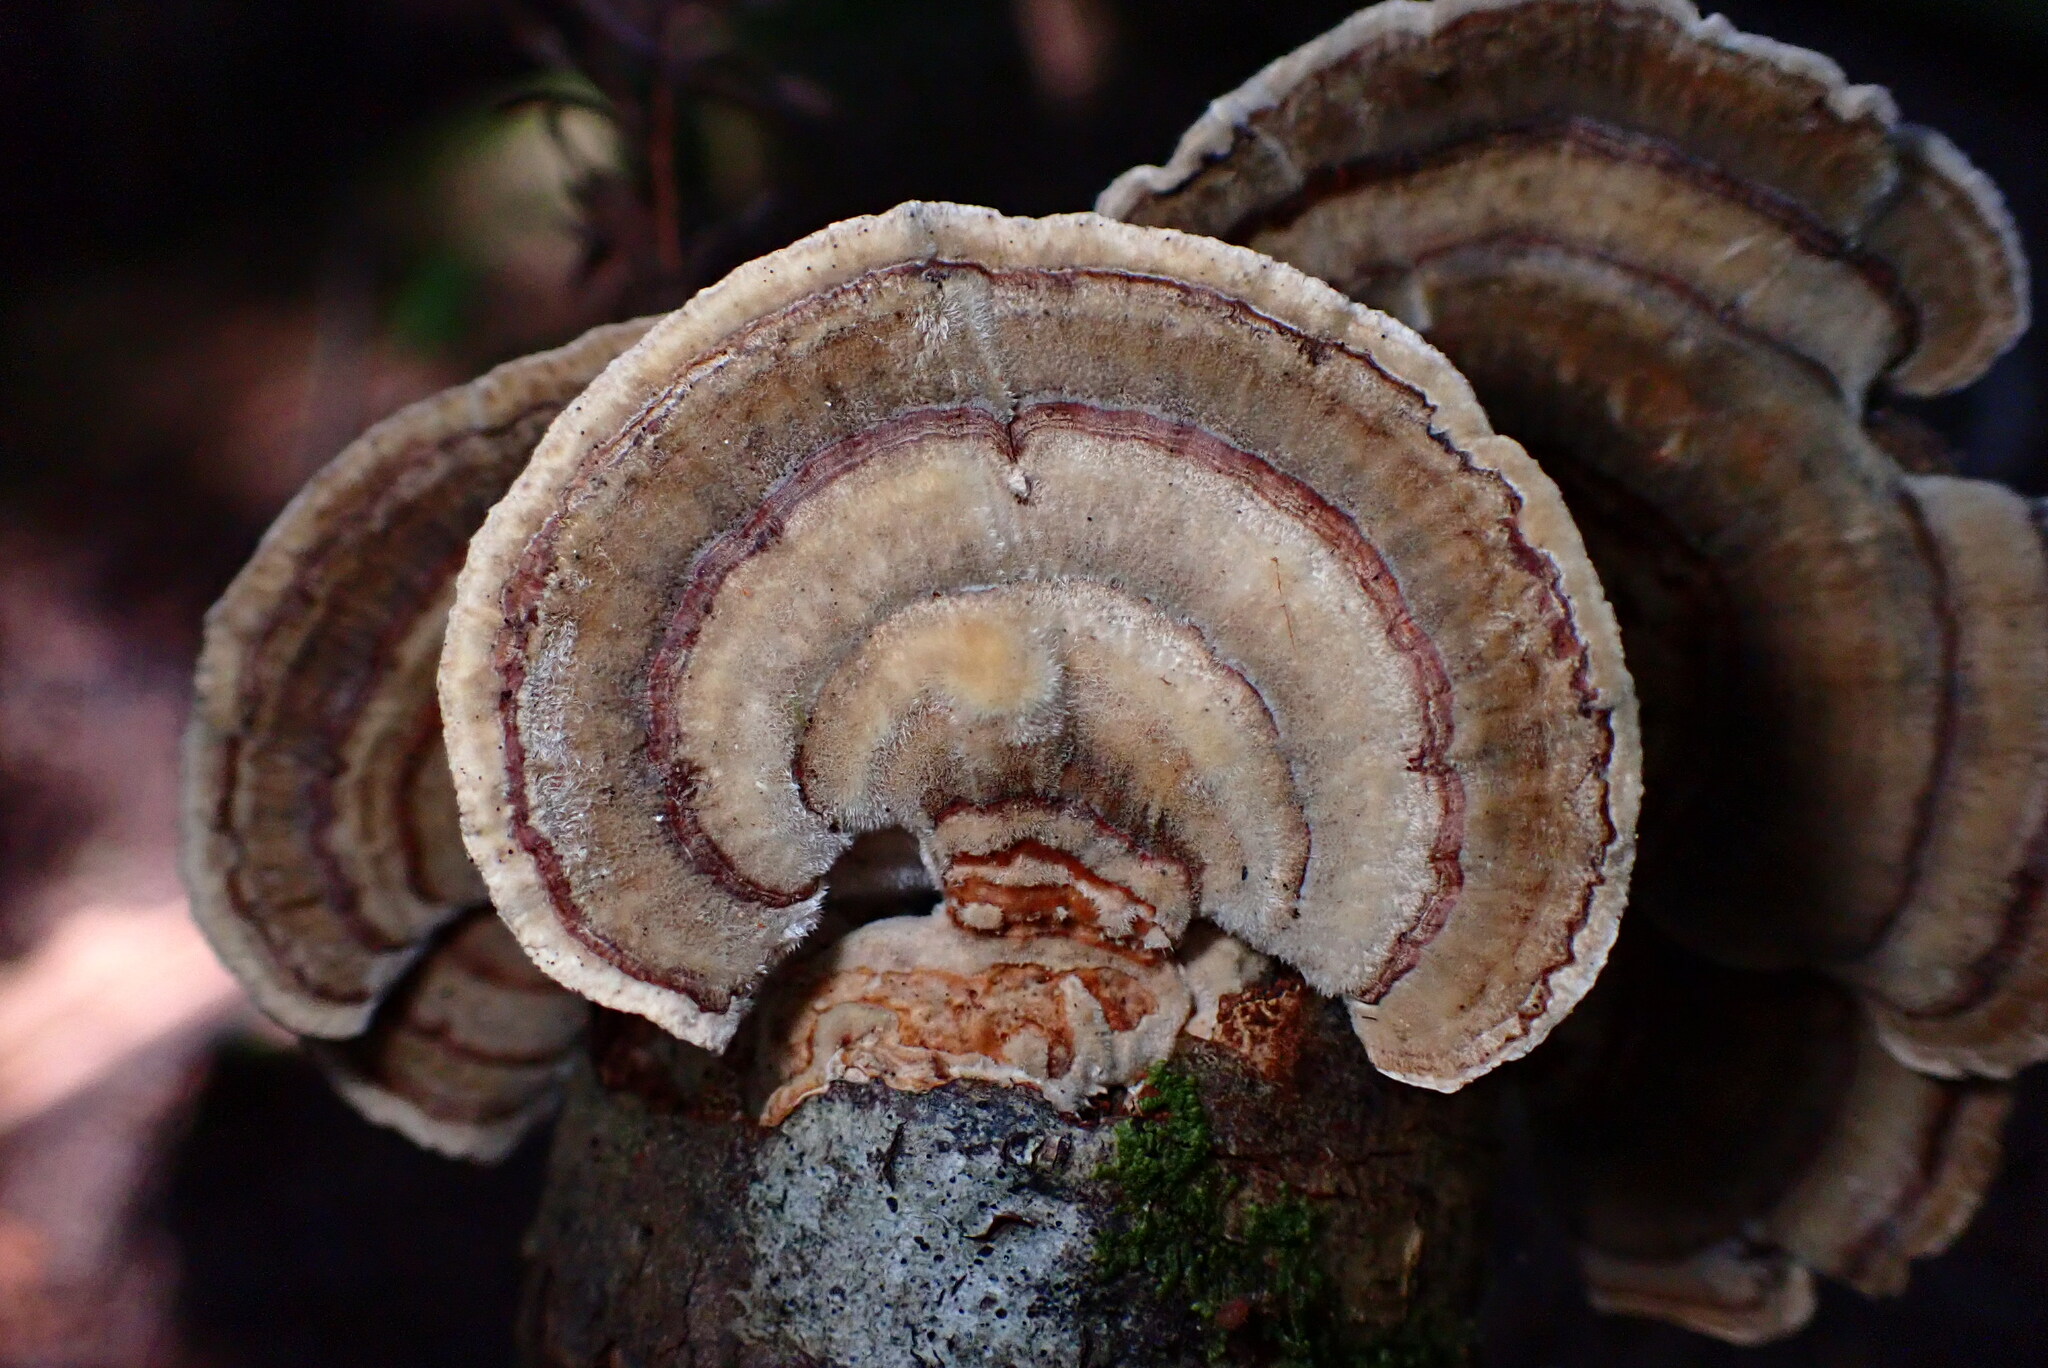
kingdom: Fungi
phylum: Basidiomycota
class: Agaricomycetes
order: Polyporales
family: Polyporaceae
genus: Trametes
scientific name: Trametes versicolor
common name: Turkeytail
